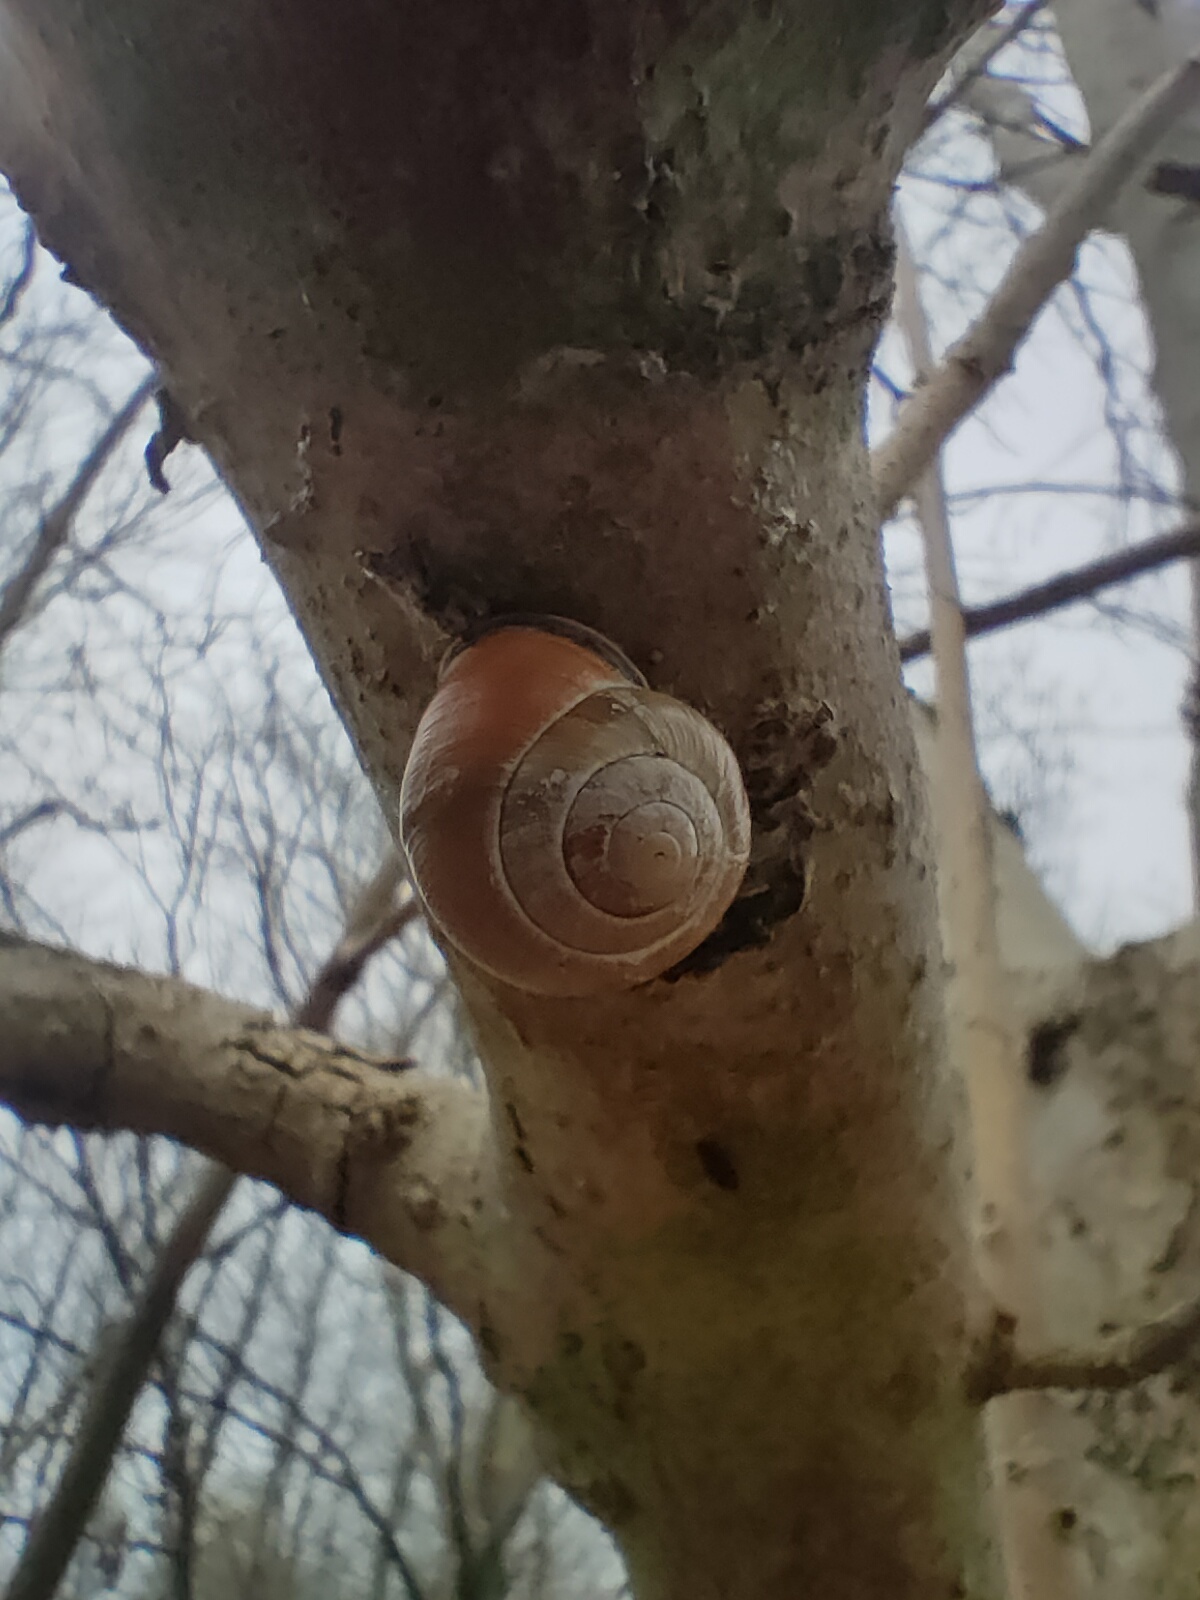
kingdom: Animalia
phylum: Mollusca
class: Gastropoda
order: Stylommatophora
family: Helicidae
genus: Cepaea
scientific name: Cepaea nemoralis
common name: Grovesnail
